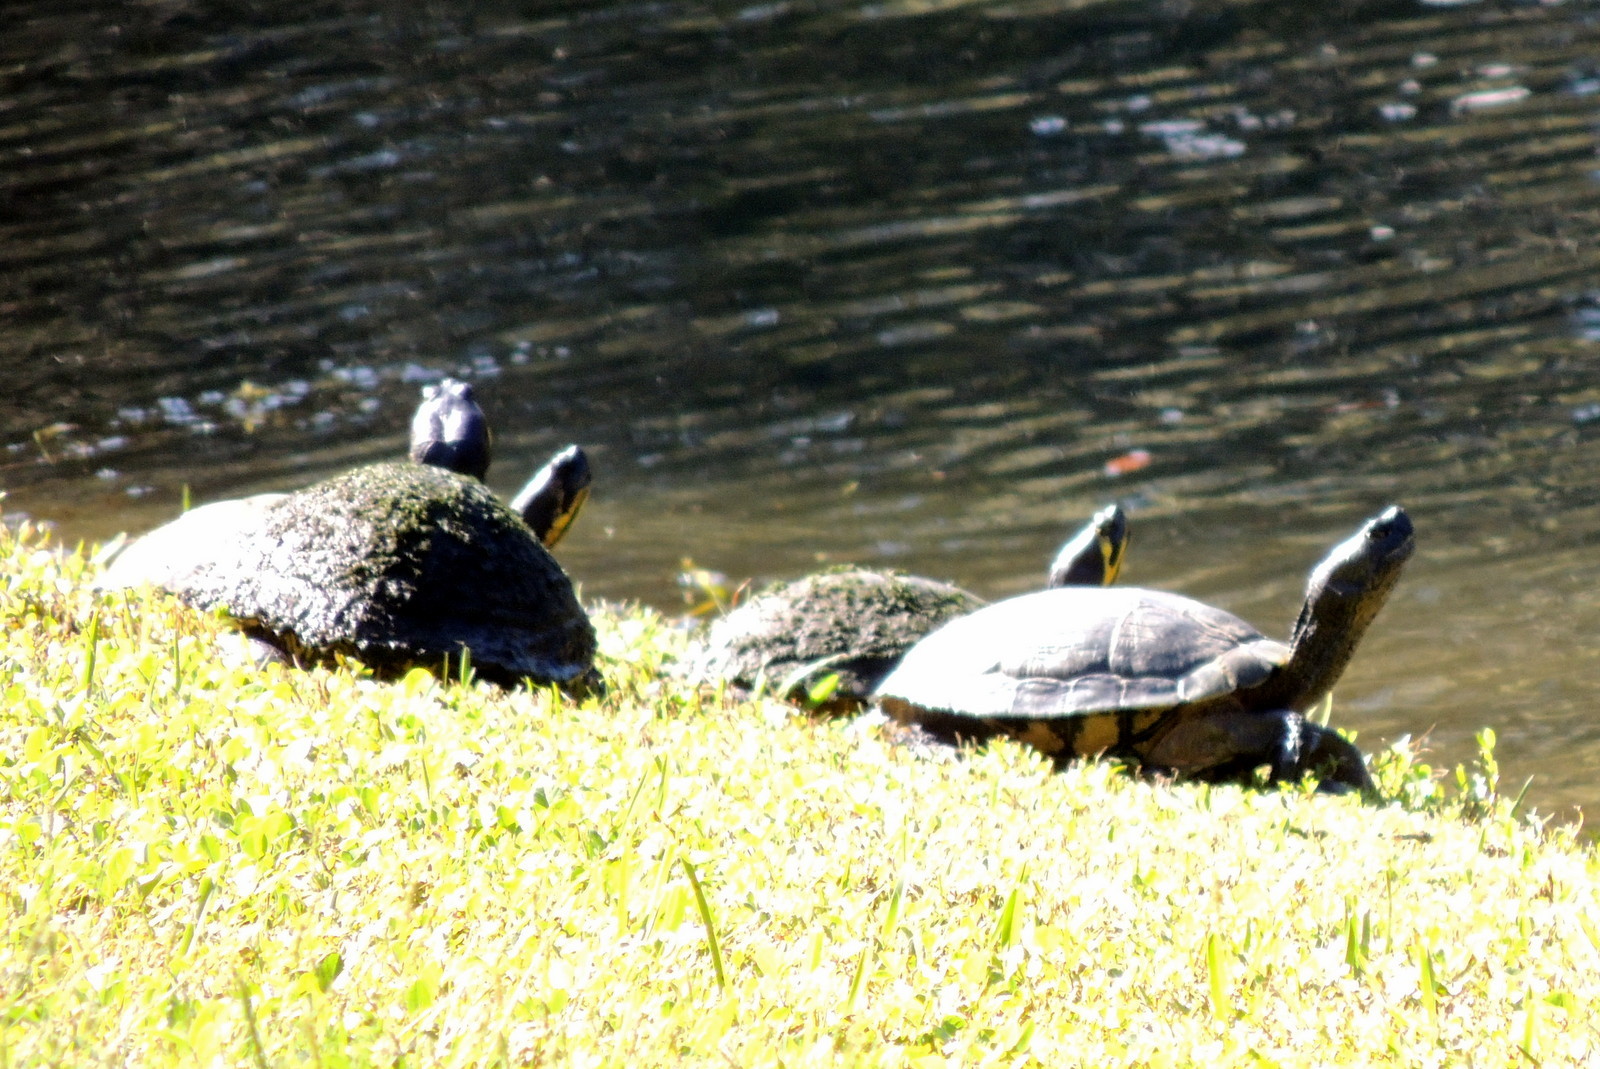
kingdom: Animalia
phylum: Chordata
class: Testudines
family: Emydidae
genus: Trachemys
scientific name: Trachemys scripta
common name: Slider
